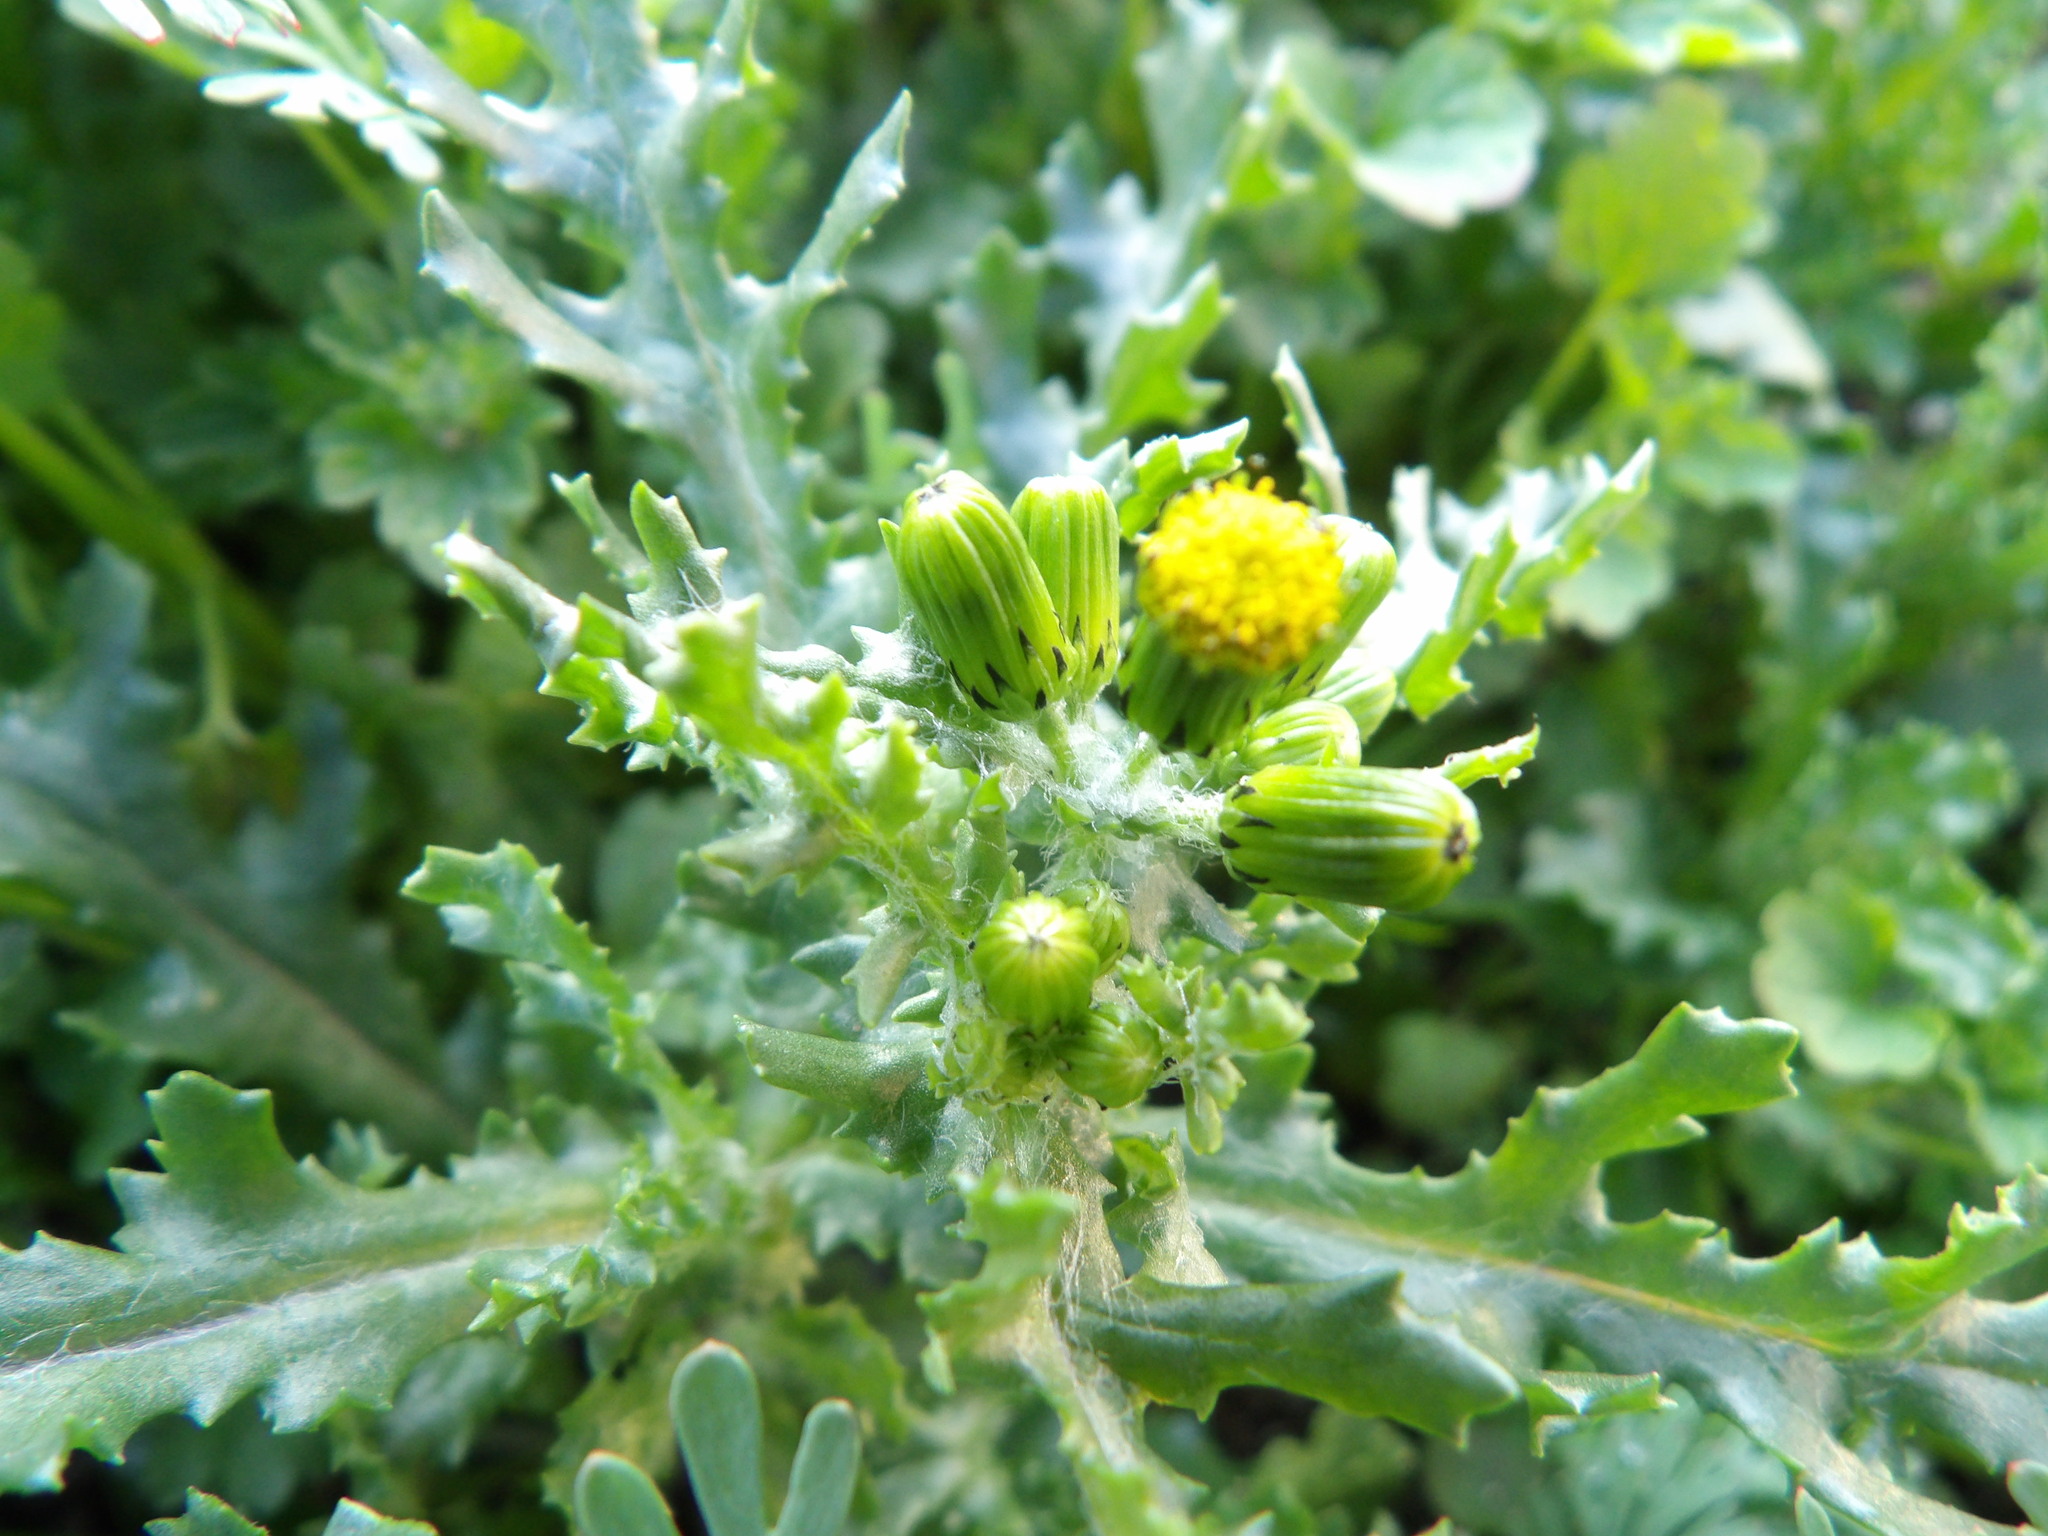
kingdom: Plantae
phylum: Tracheophyta
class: Magnoliopsida
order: Asterales
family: Asteraceae
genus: Senecio
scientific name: Senecio vulgaris
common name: Old-man-in-the-spring
